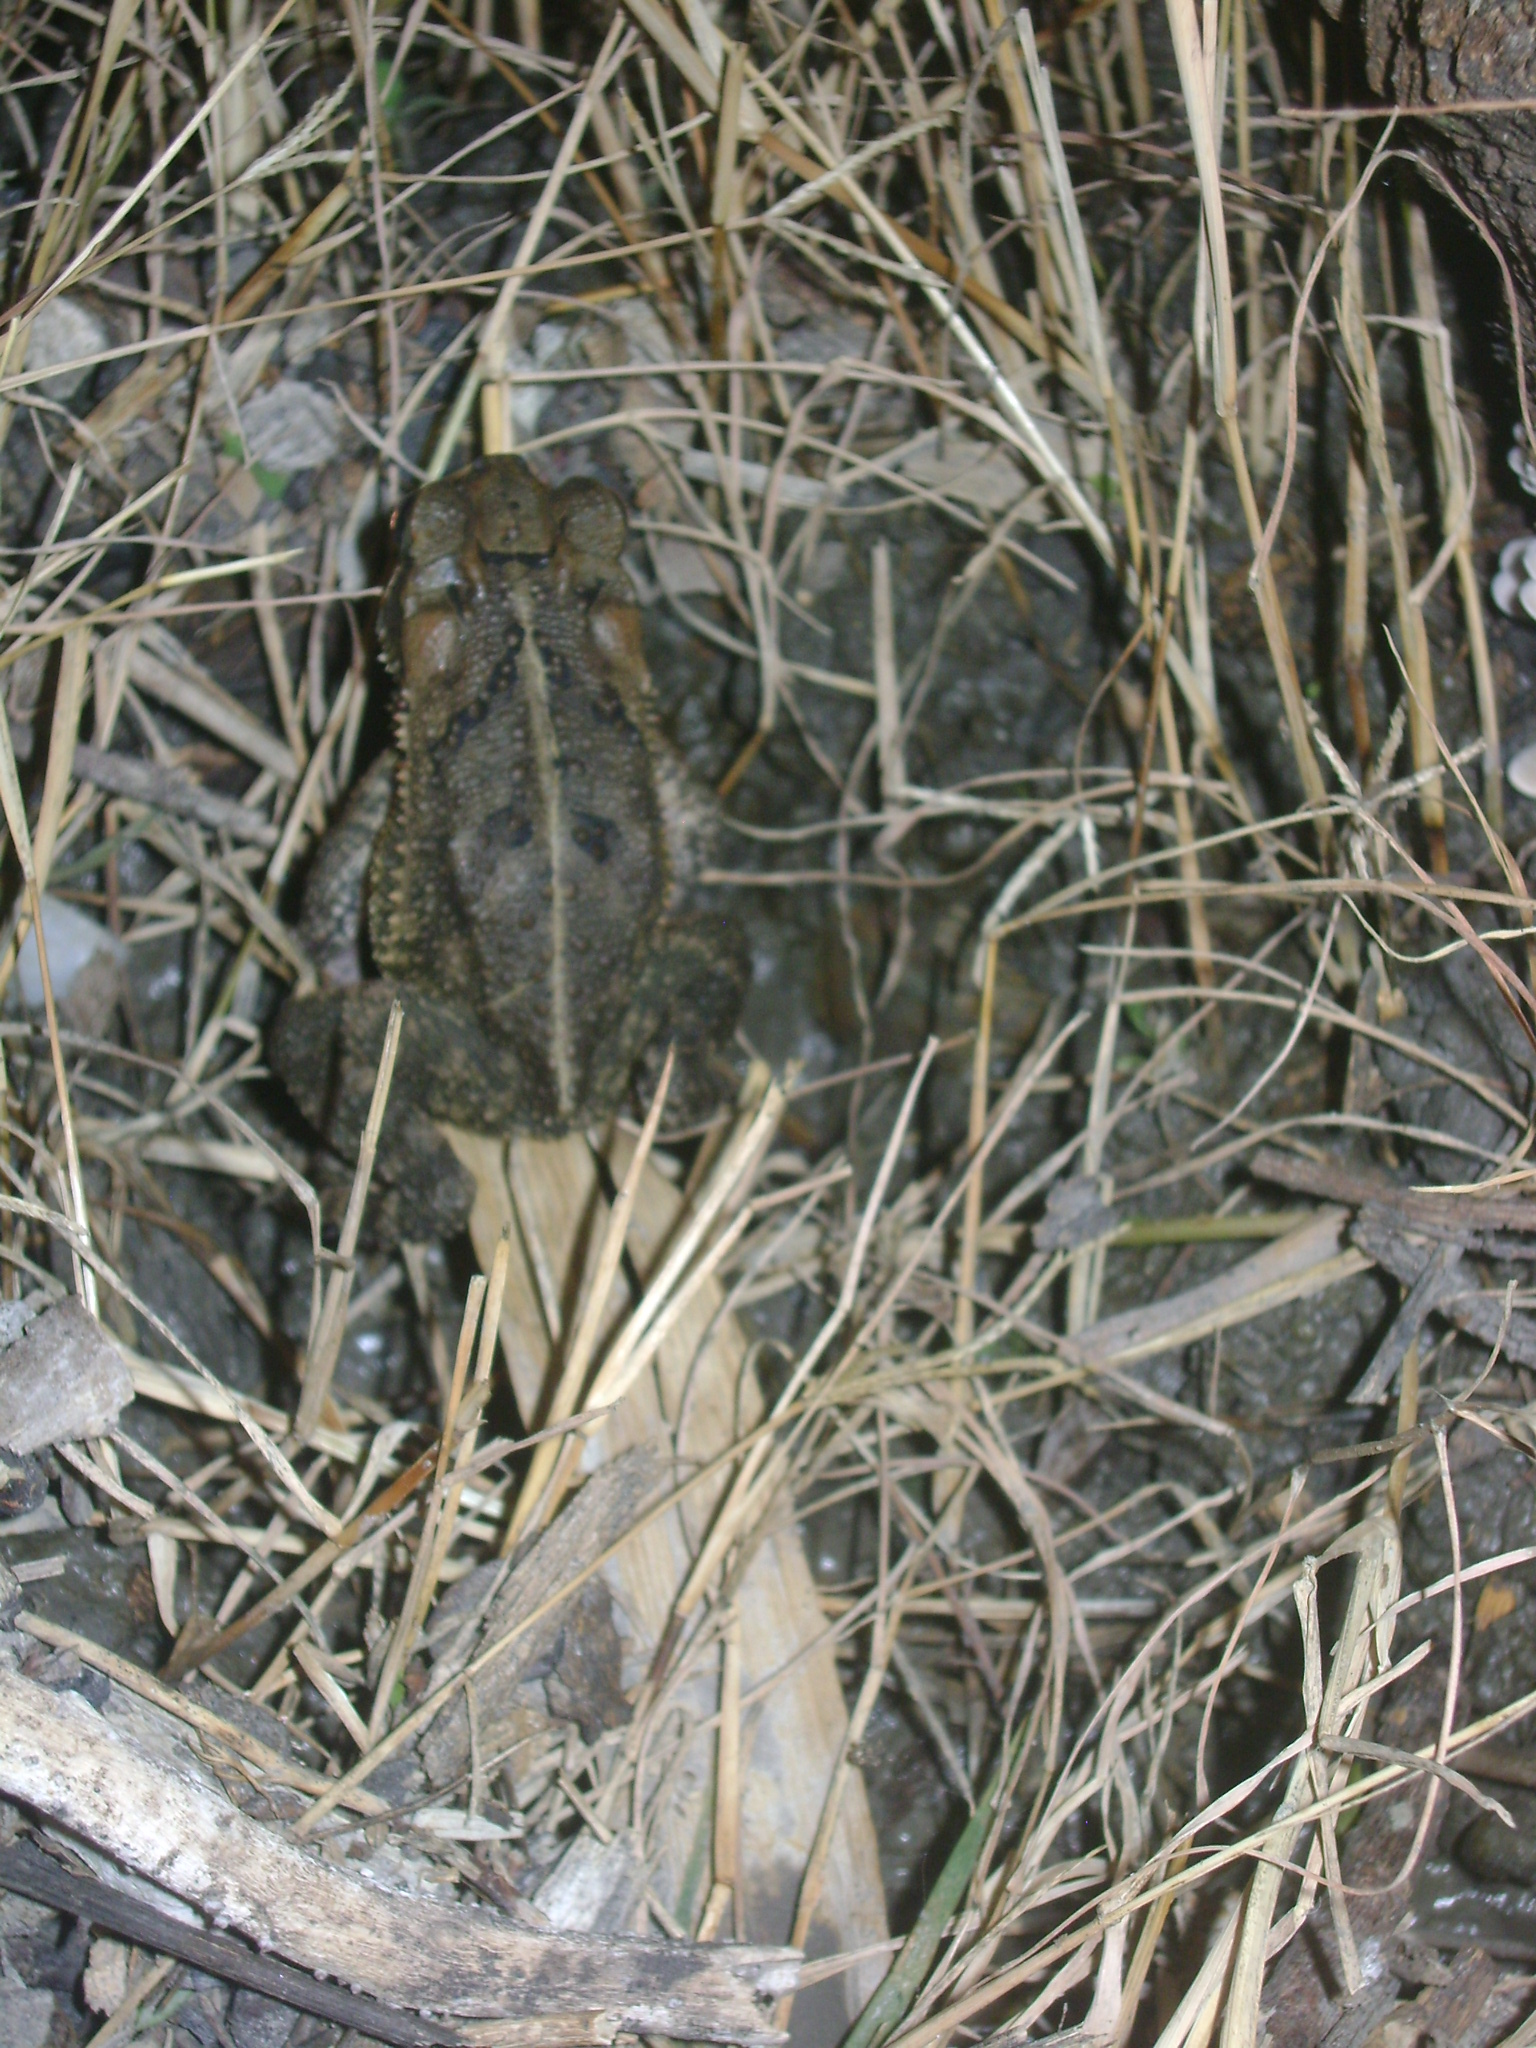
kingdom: Animalia
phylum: Chordata
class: Amphibia
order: Anura
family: Bufonidae
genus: Incilius
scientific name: Incilius valliceps
